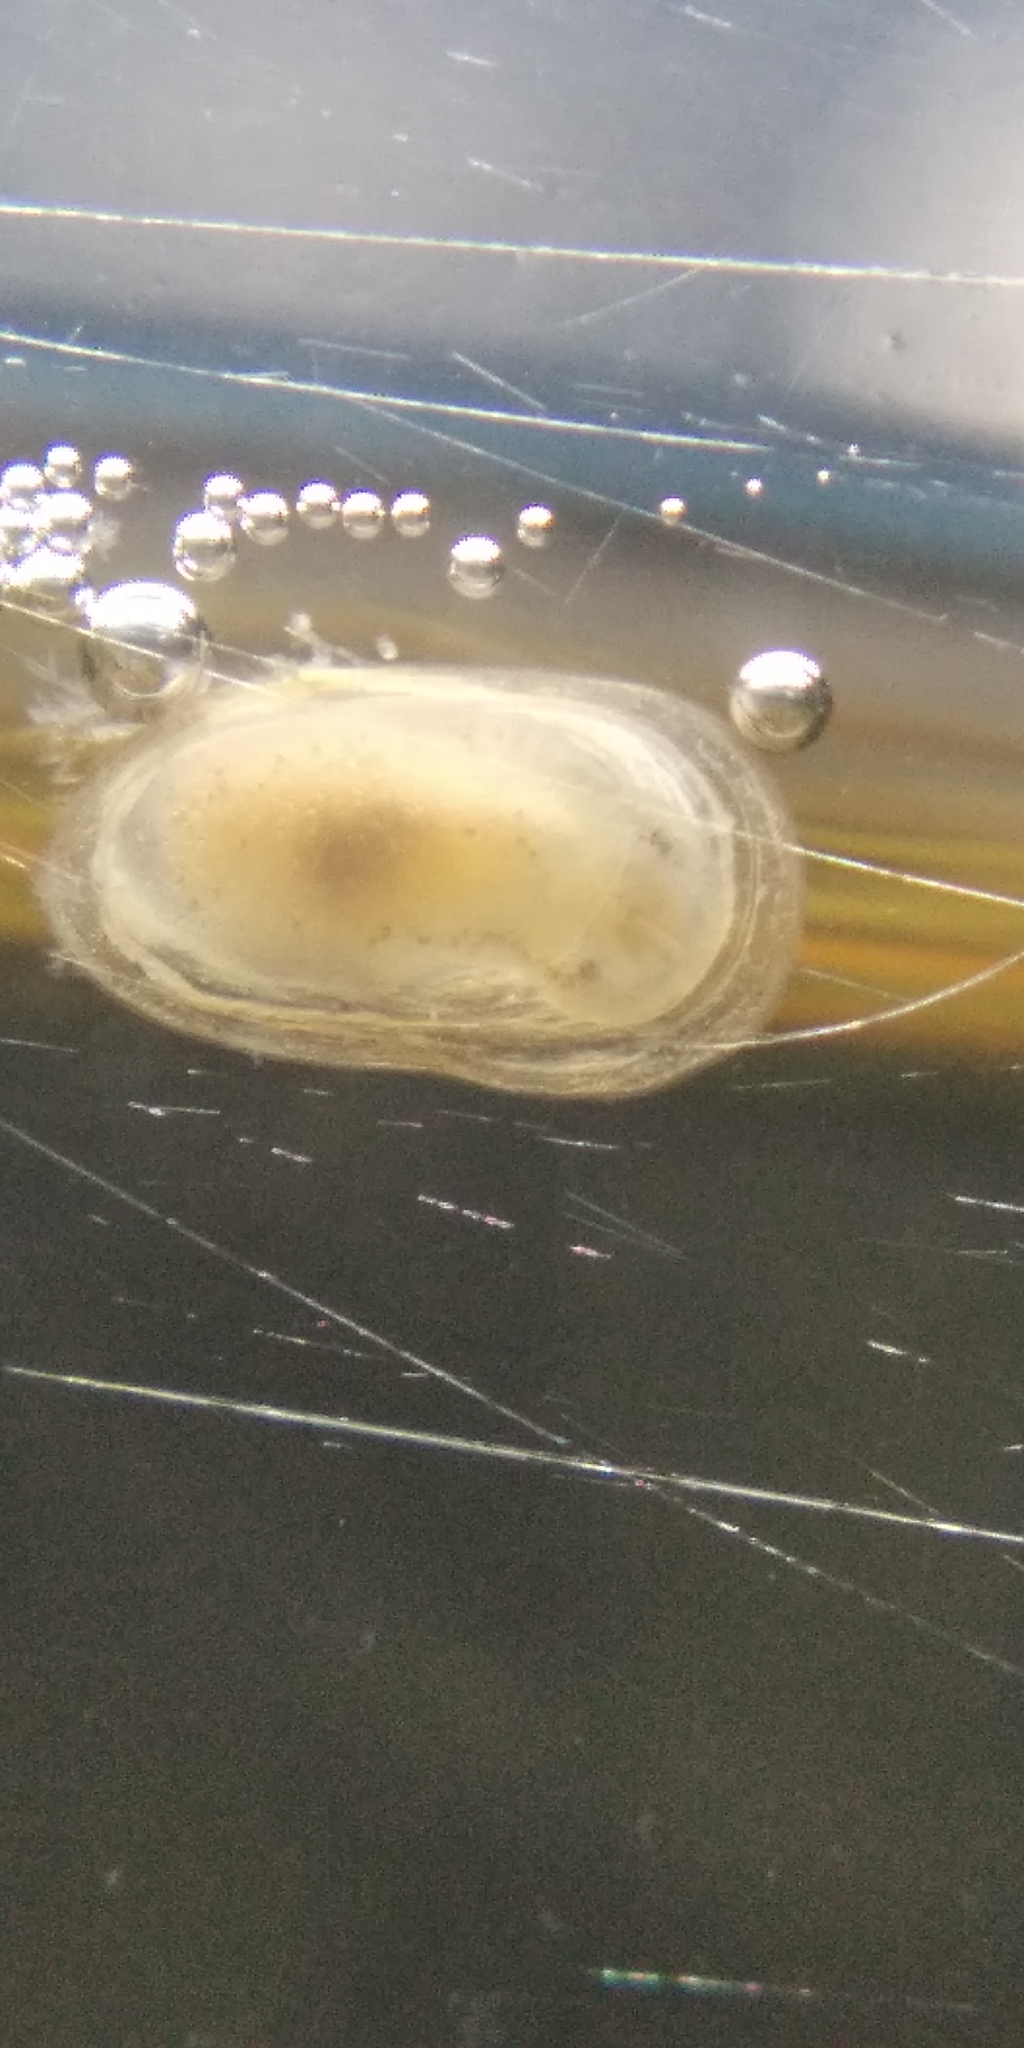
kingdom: Animalia
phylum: Mollusca
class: Gastropoda
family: Planorbidae
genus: Ferrissia
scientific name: Ferrissia californica
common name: Fragile ancylid
